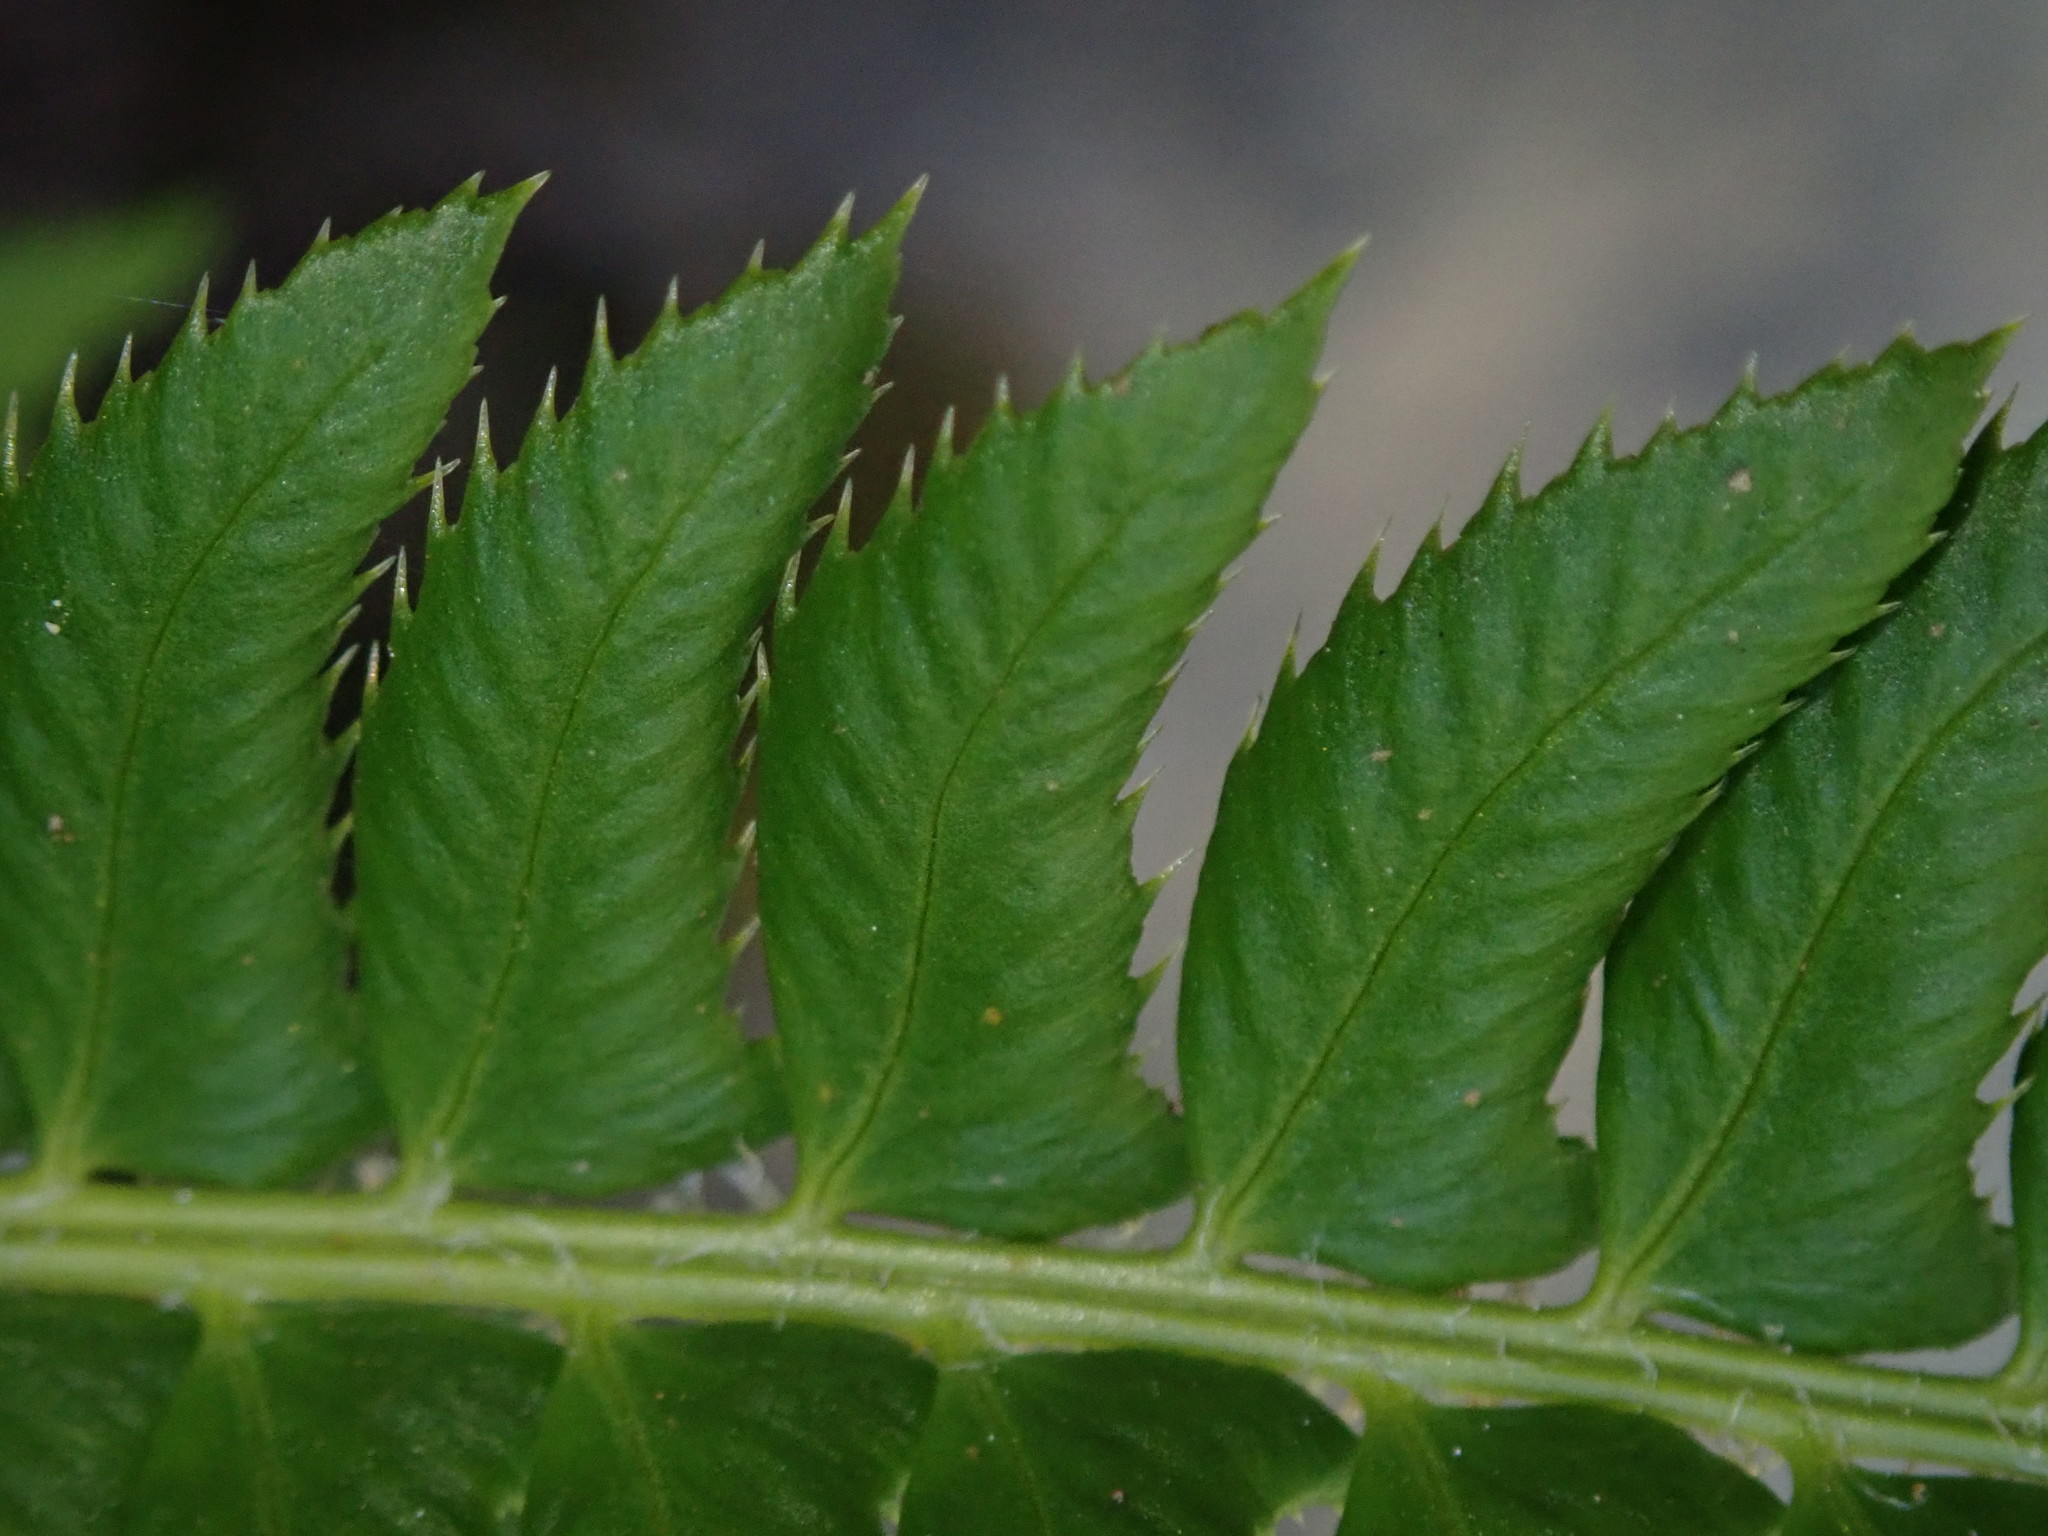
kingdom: Plantae
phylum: Tracheophyta
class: Polypodiopsida
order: Polypodiales
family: Dryopteridaceae
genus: Polystichum
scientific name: Polystichum lonchitis
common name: Holly fern
